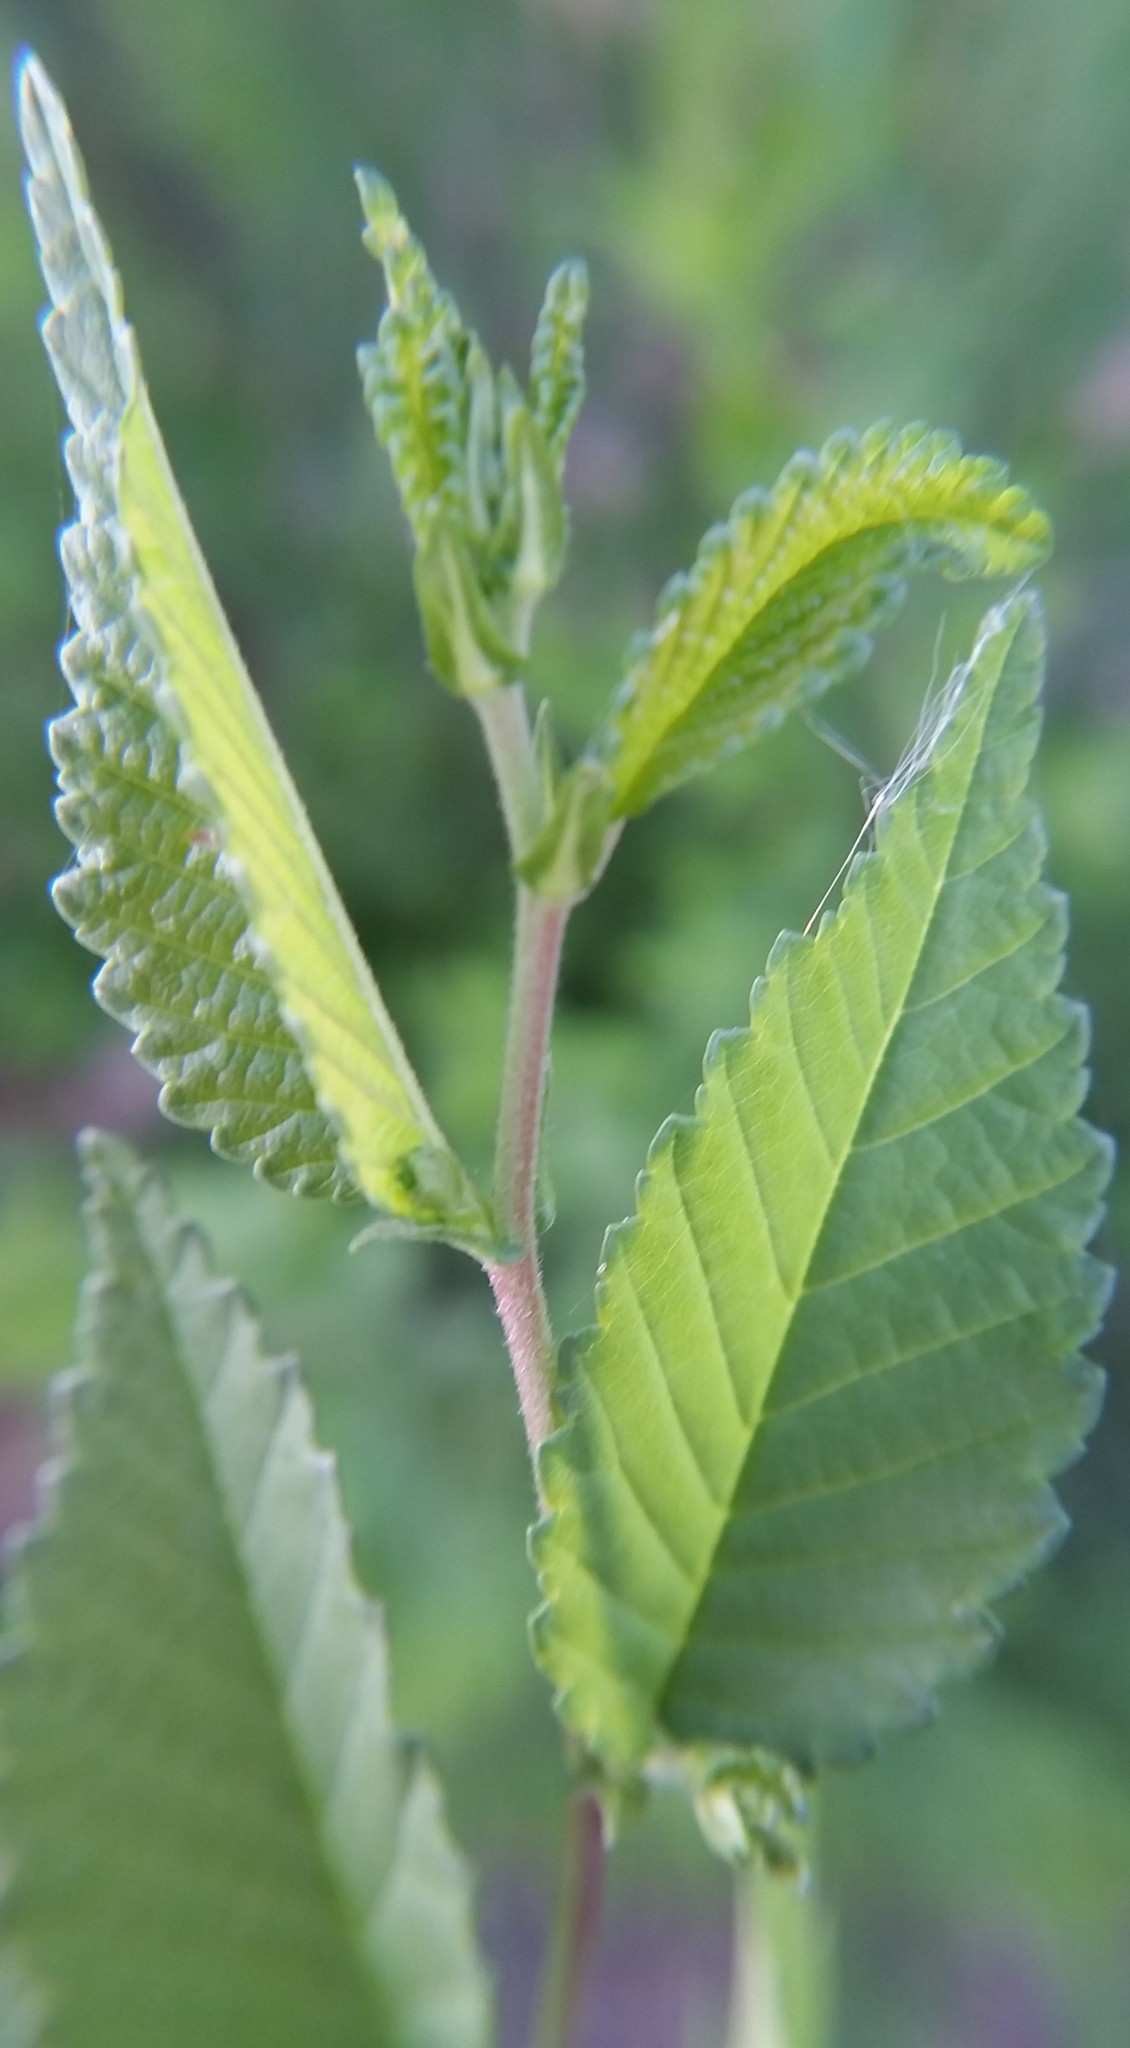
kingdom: Plantae
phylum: Tracheophyta
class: Magnoliopsida
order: Rosales
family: Ulmaceae
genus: Ulmus
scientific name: Ulmus pumila
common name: Siberian elm
